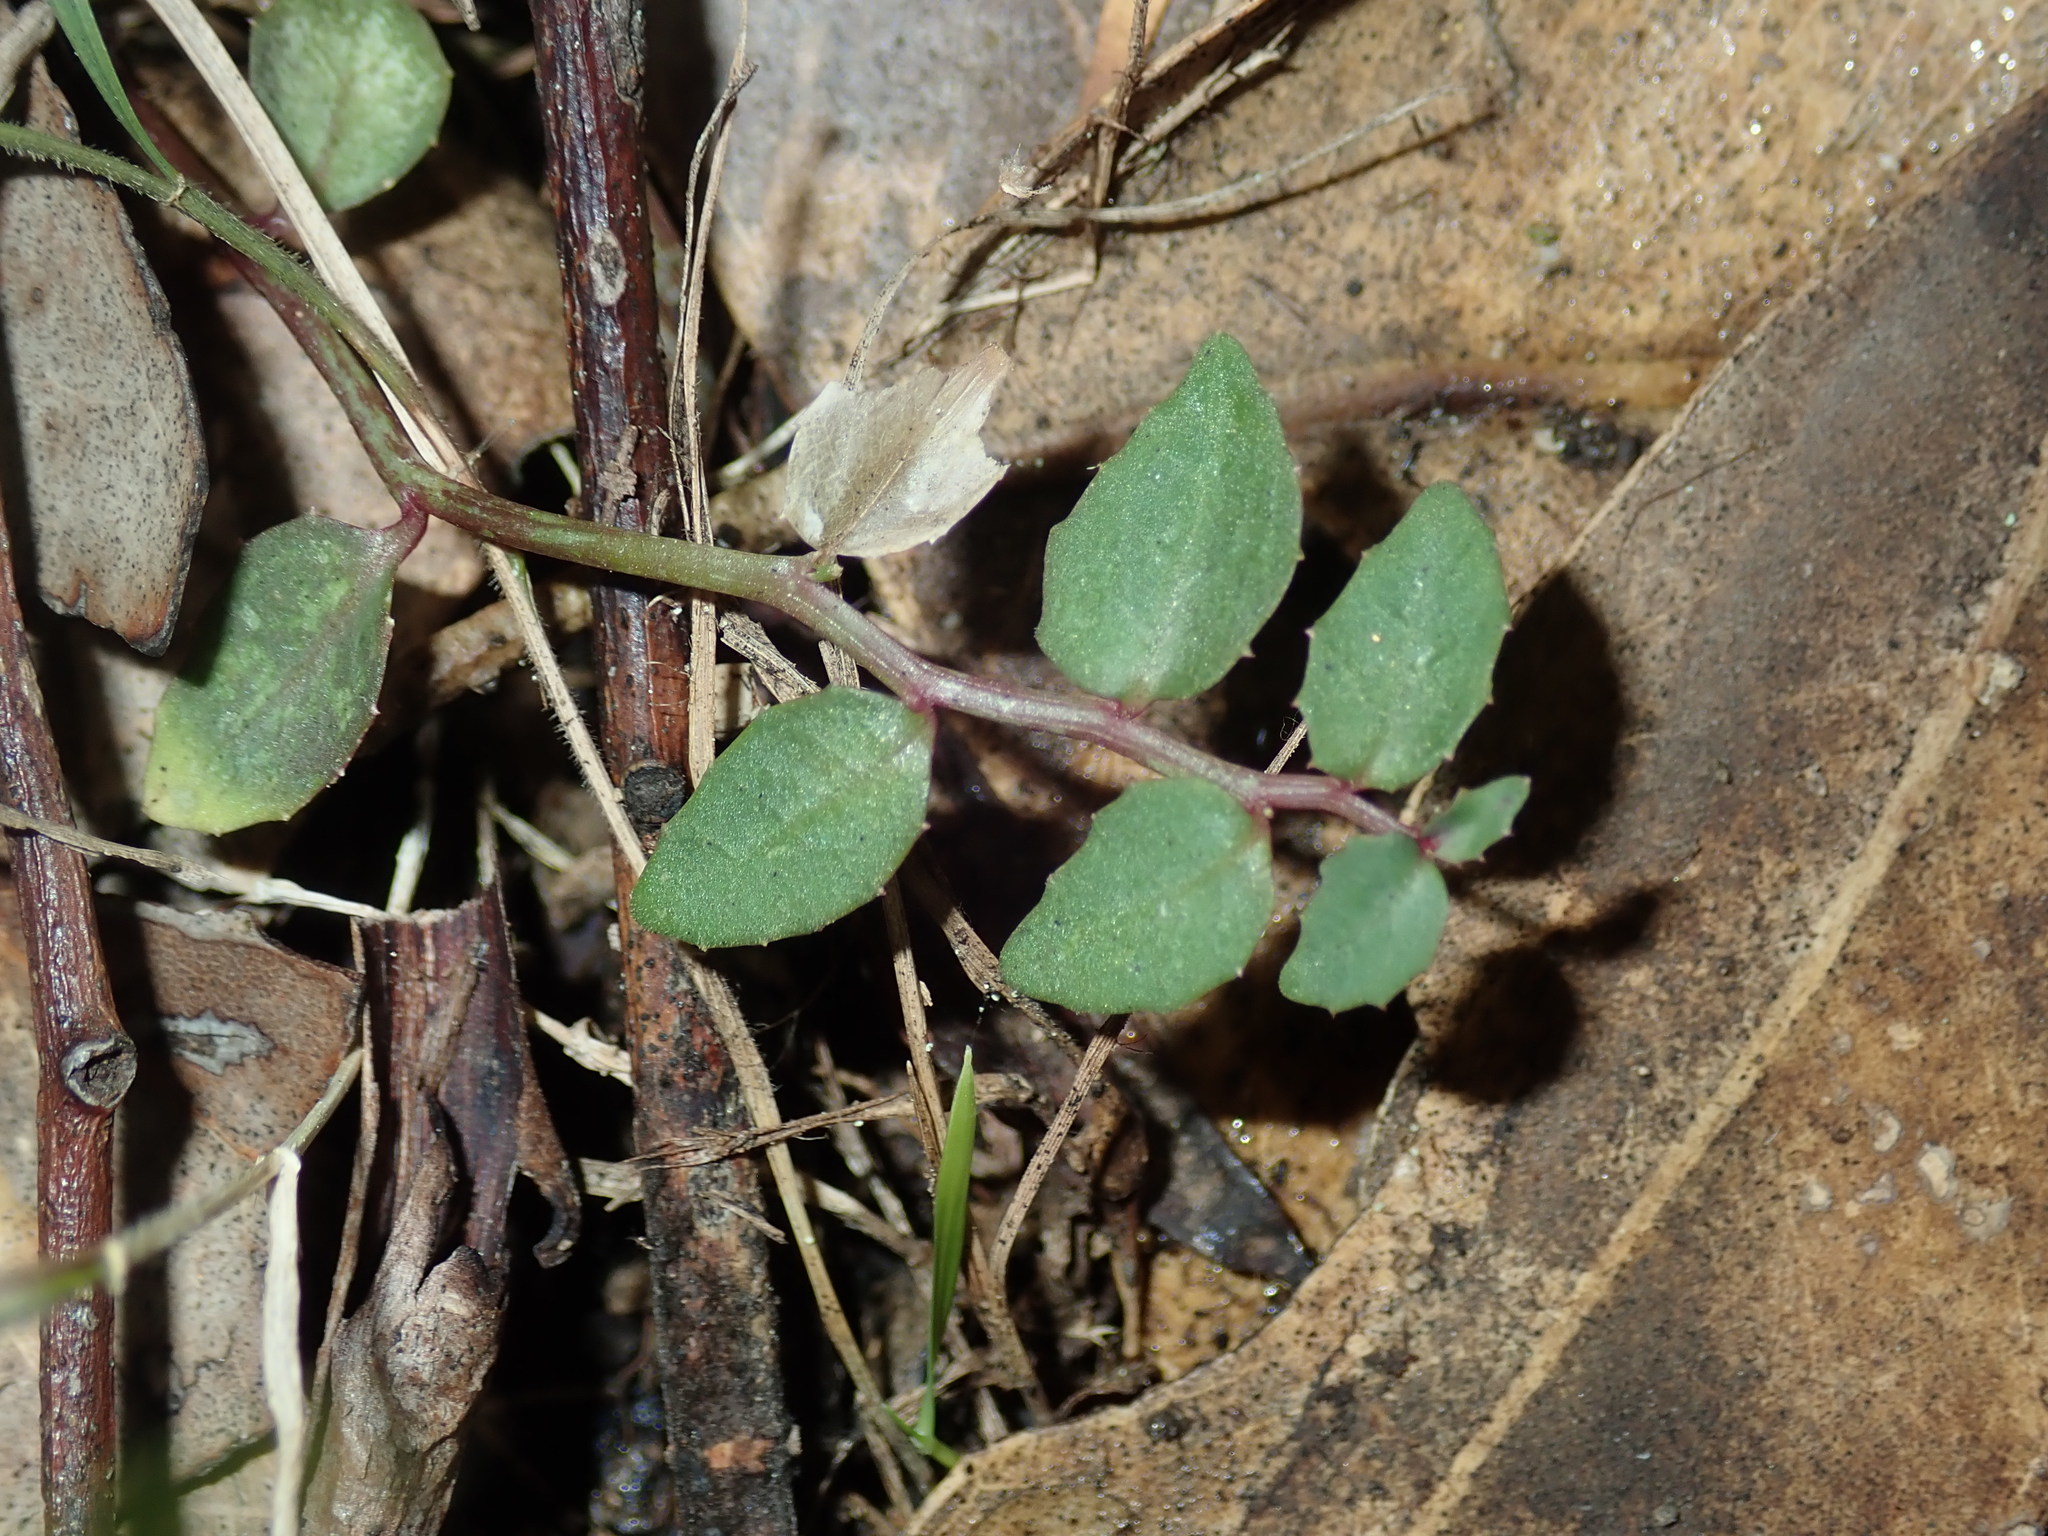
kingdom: Plantae
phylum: Tracheophyta
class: Magnoliopsida
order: Asterales
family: Campanulaceae
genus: Lobelia
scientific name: Lobelia purpurascens
